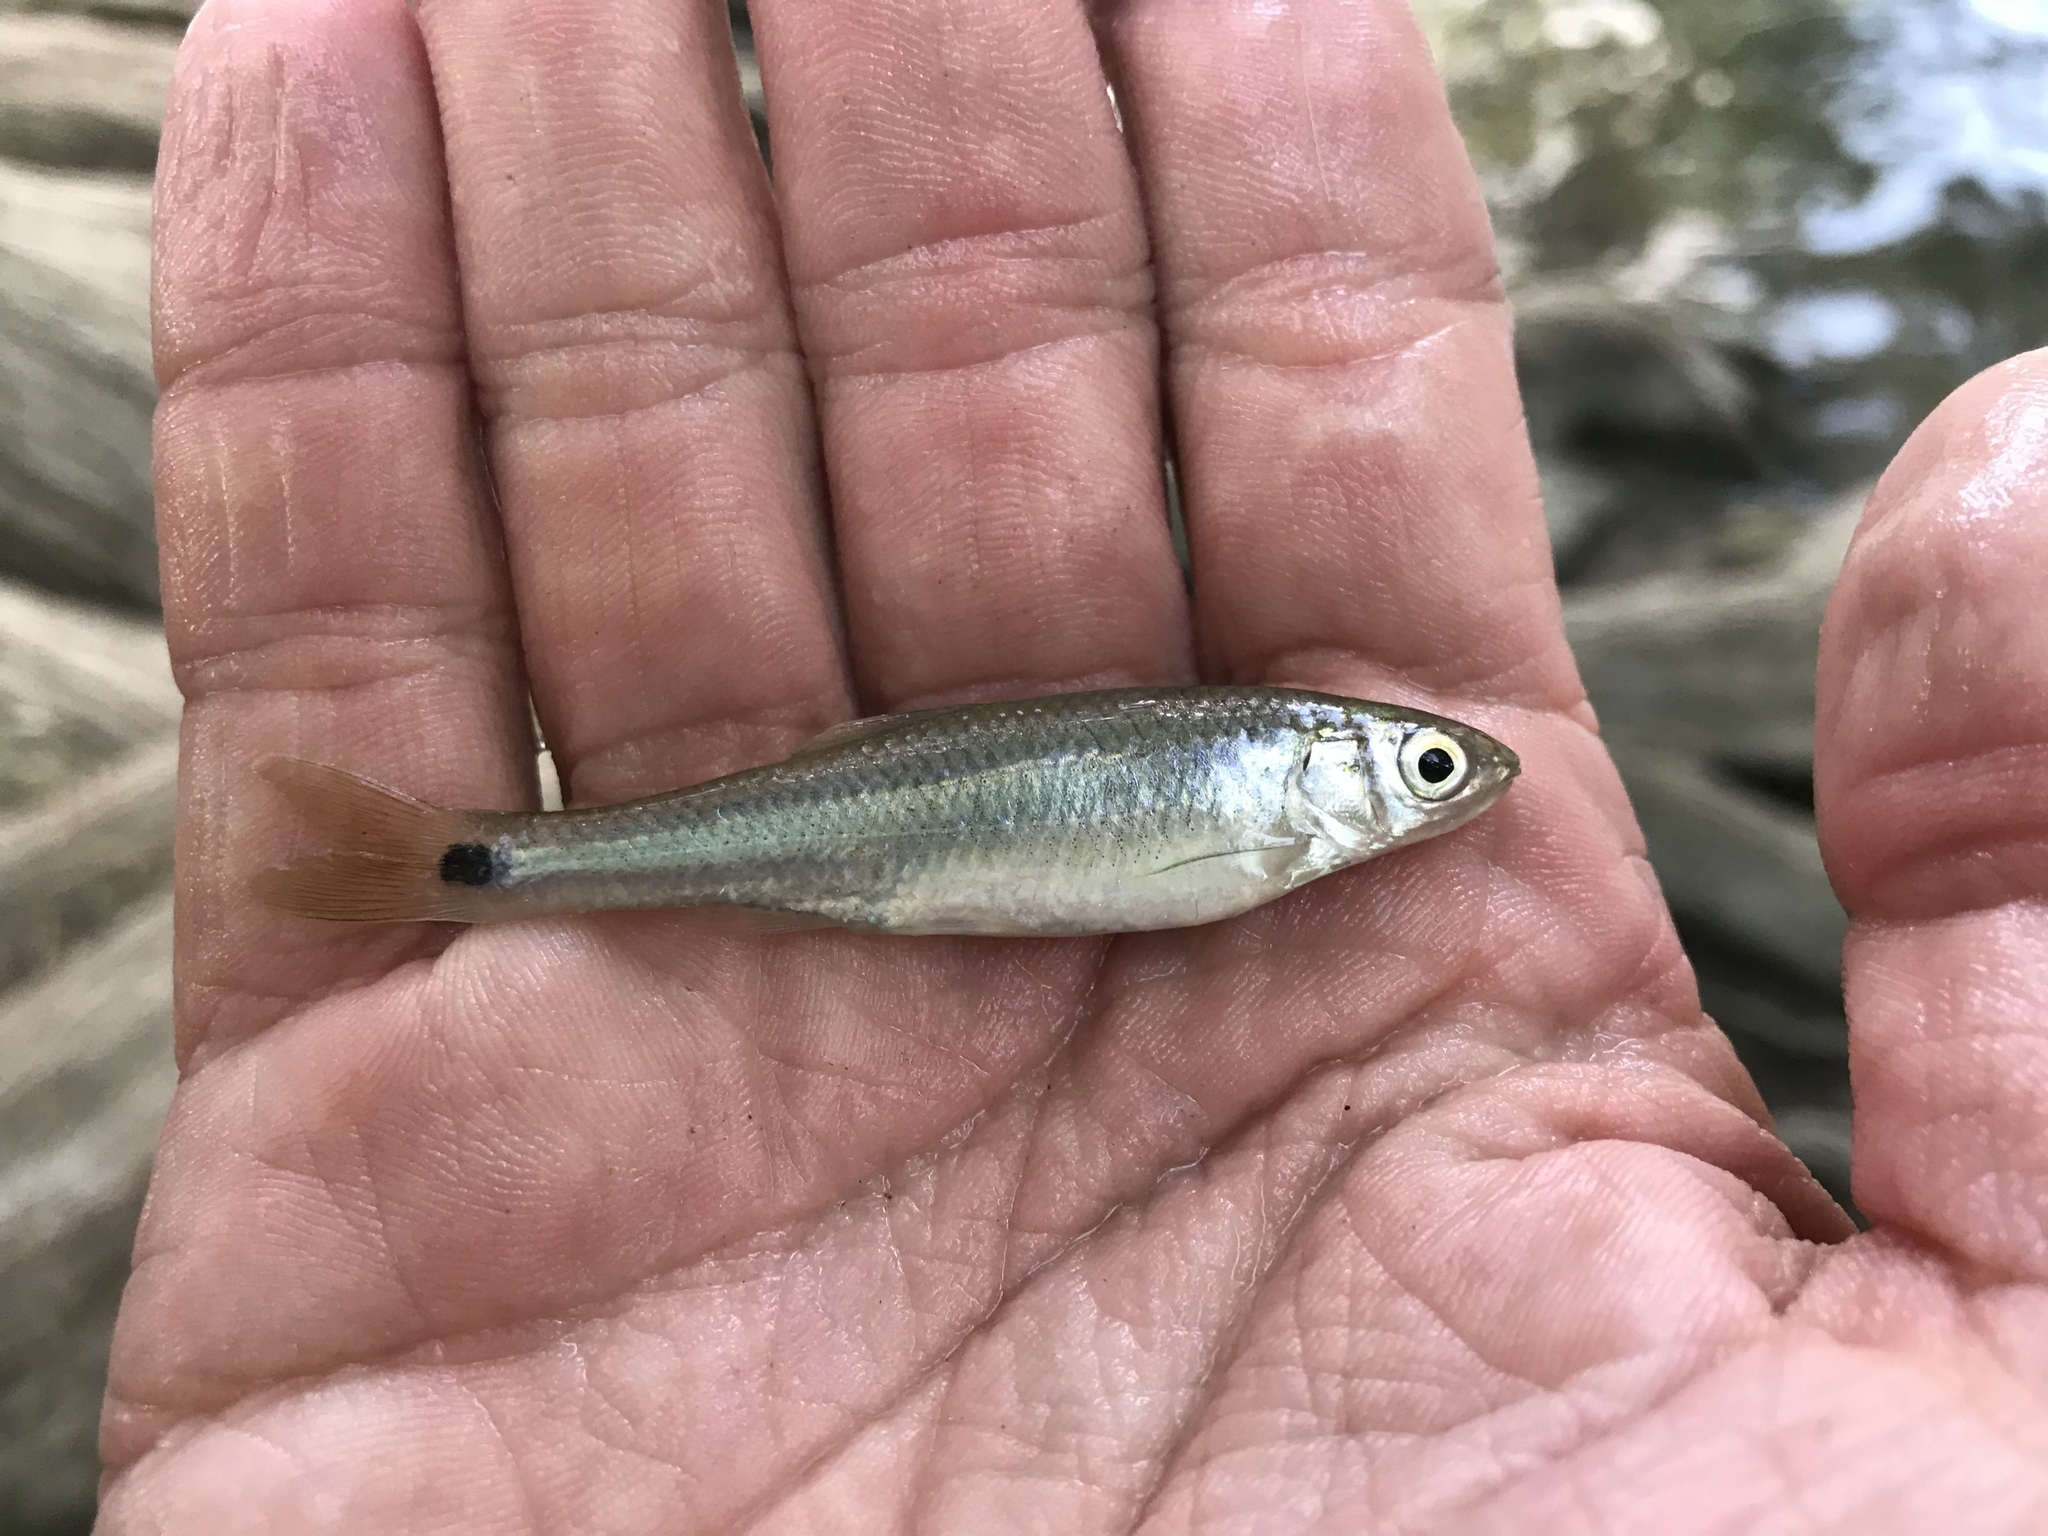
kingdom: Animalia
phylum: Chordata
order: Cypriniformes
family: Cyprinidae
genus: Cyprinella
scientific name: Cyprinella venusta
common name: Blacktail shiner
